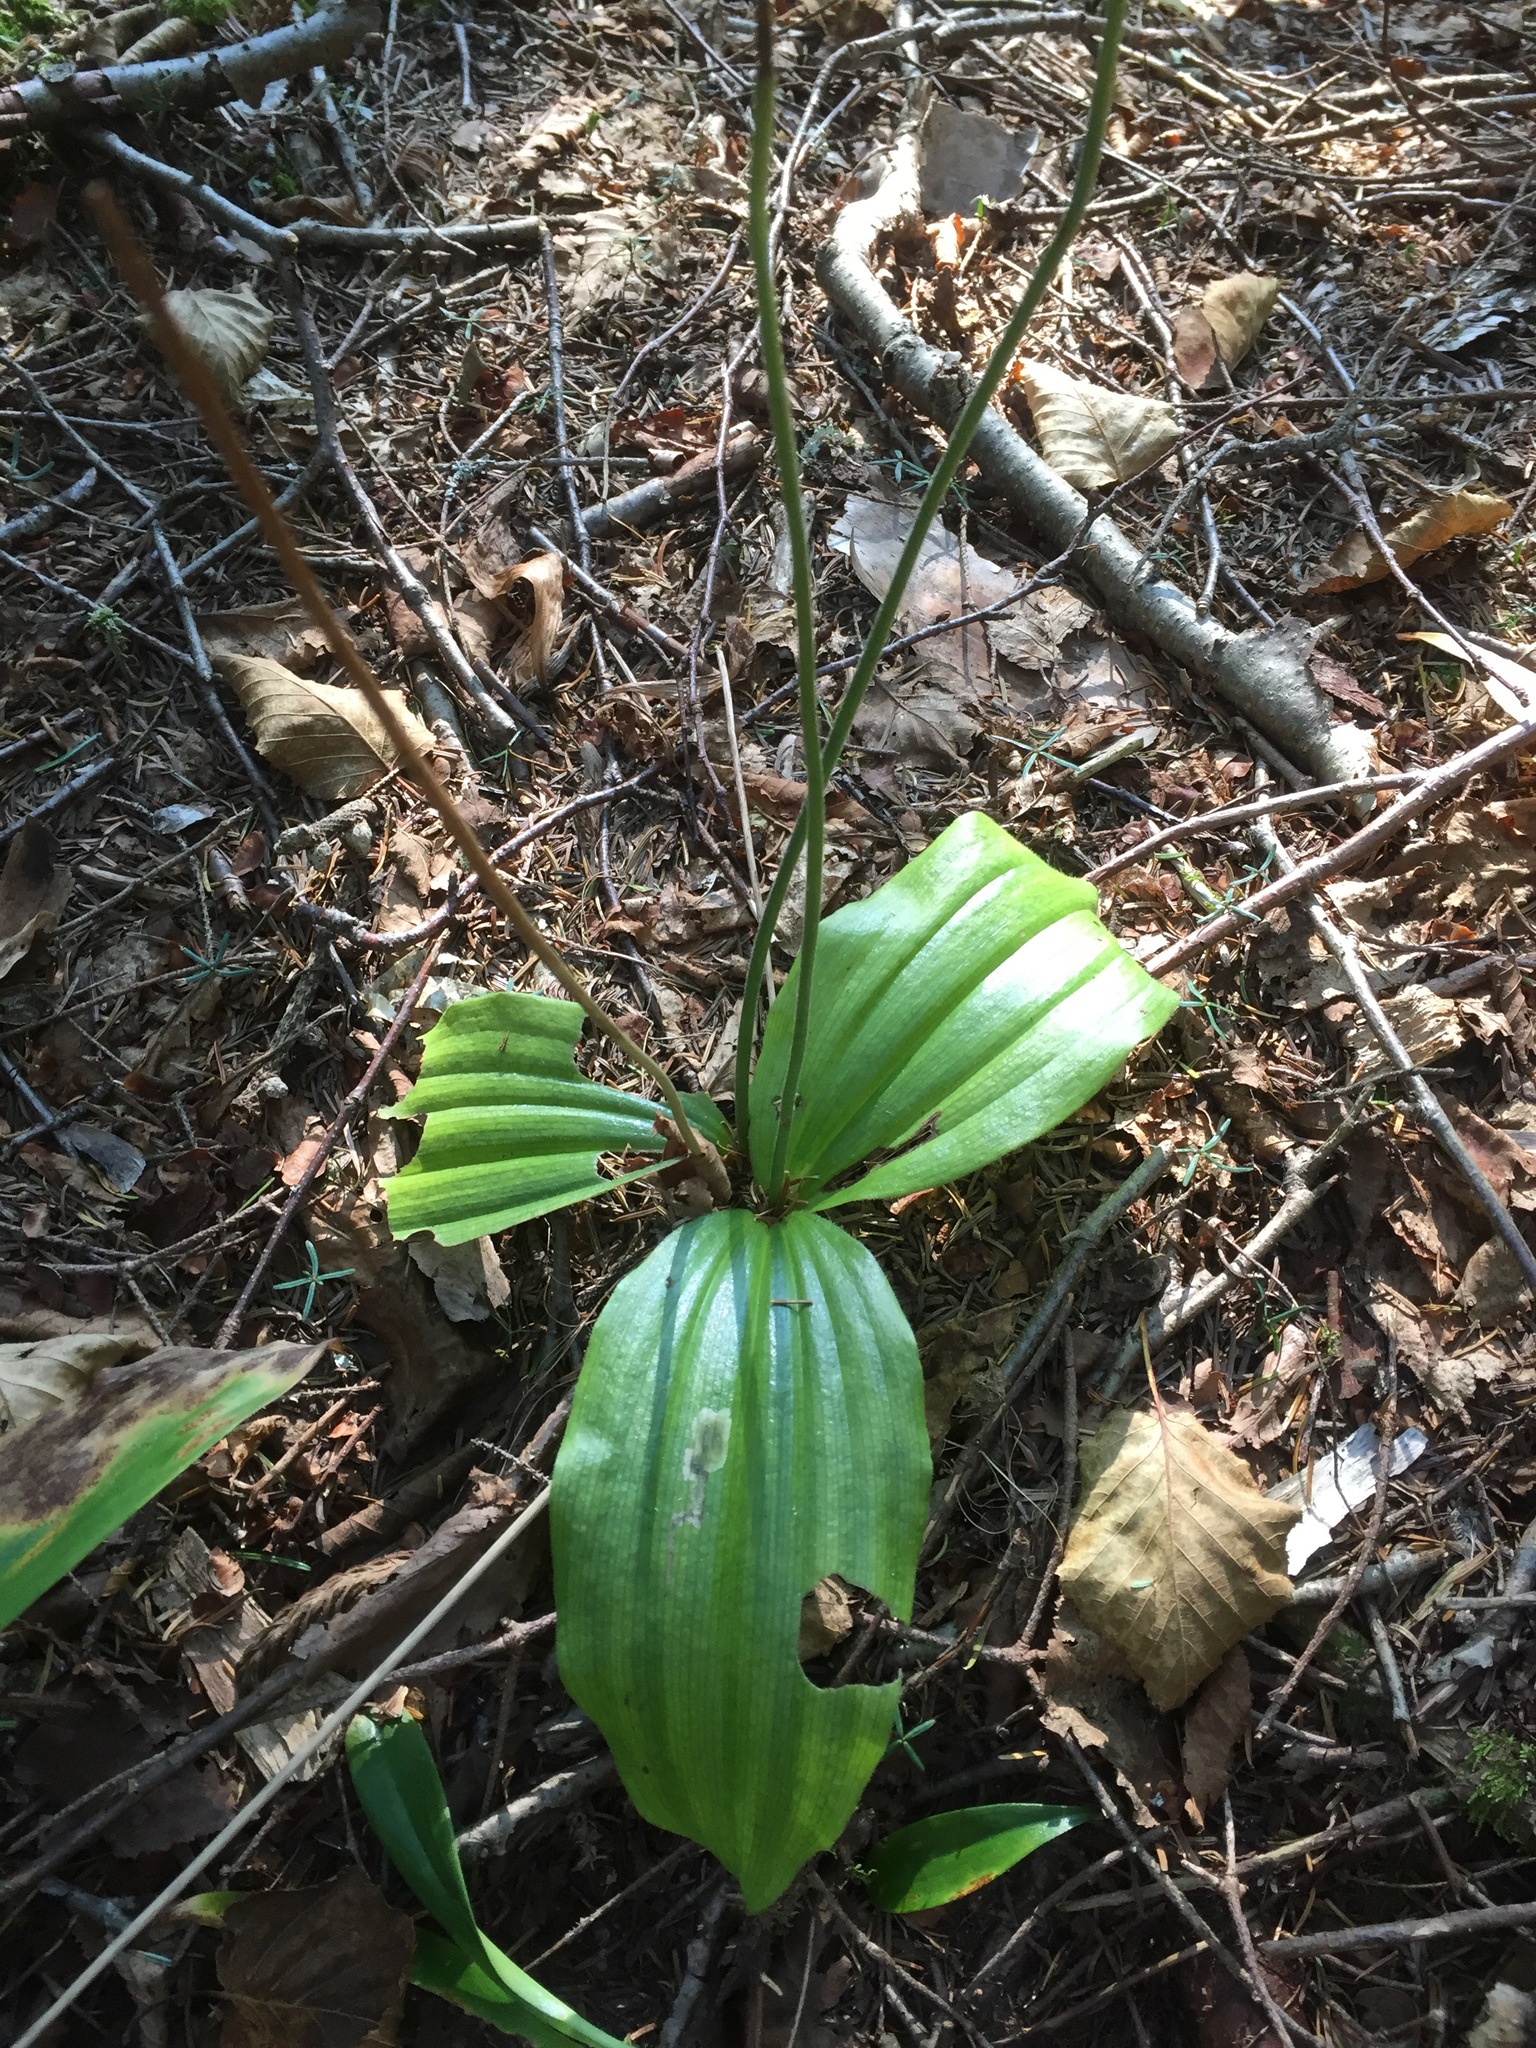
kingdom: Plantae
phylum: Tracheophyta
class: Liliopsida
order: Asparagales
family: Orchidaceae
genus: Cypripedium
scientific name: Cypripedium acaule
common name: Pink lady's-slipper
